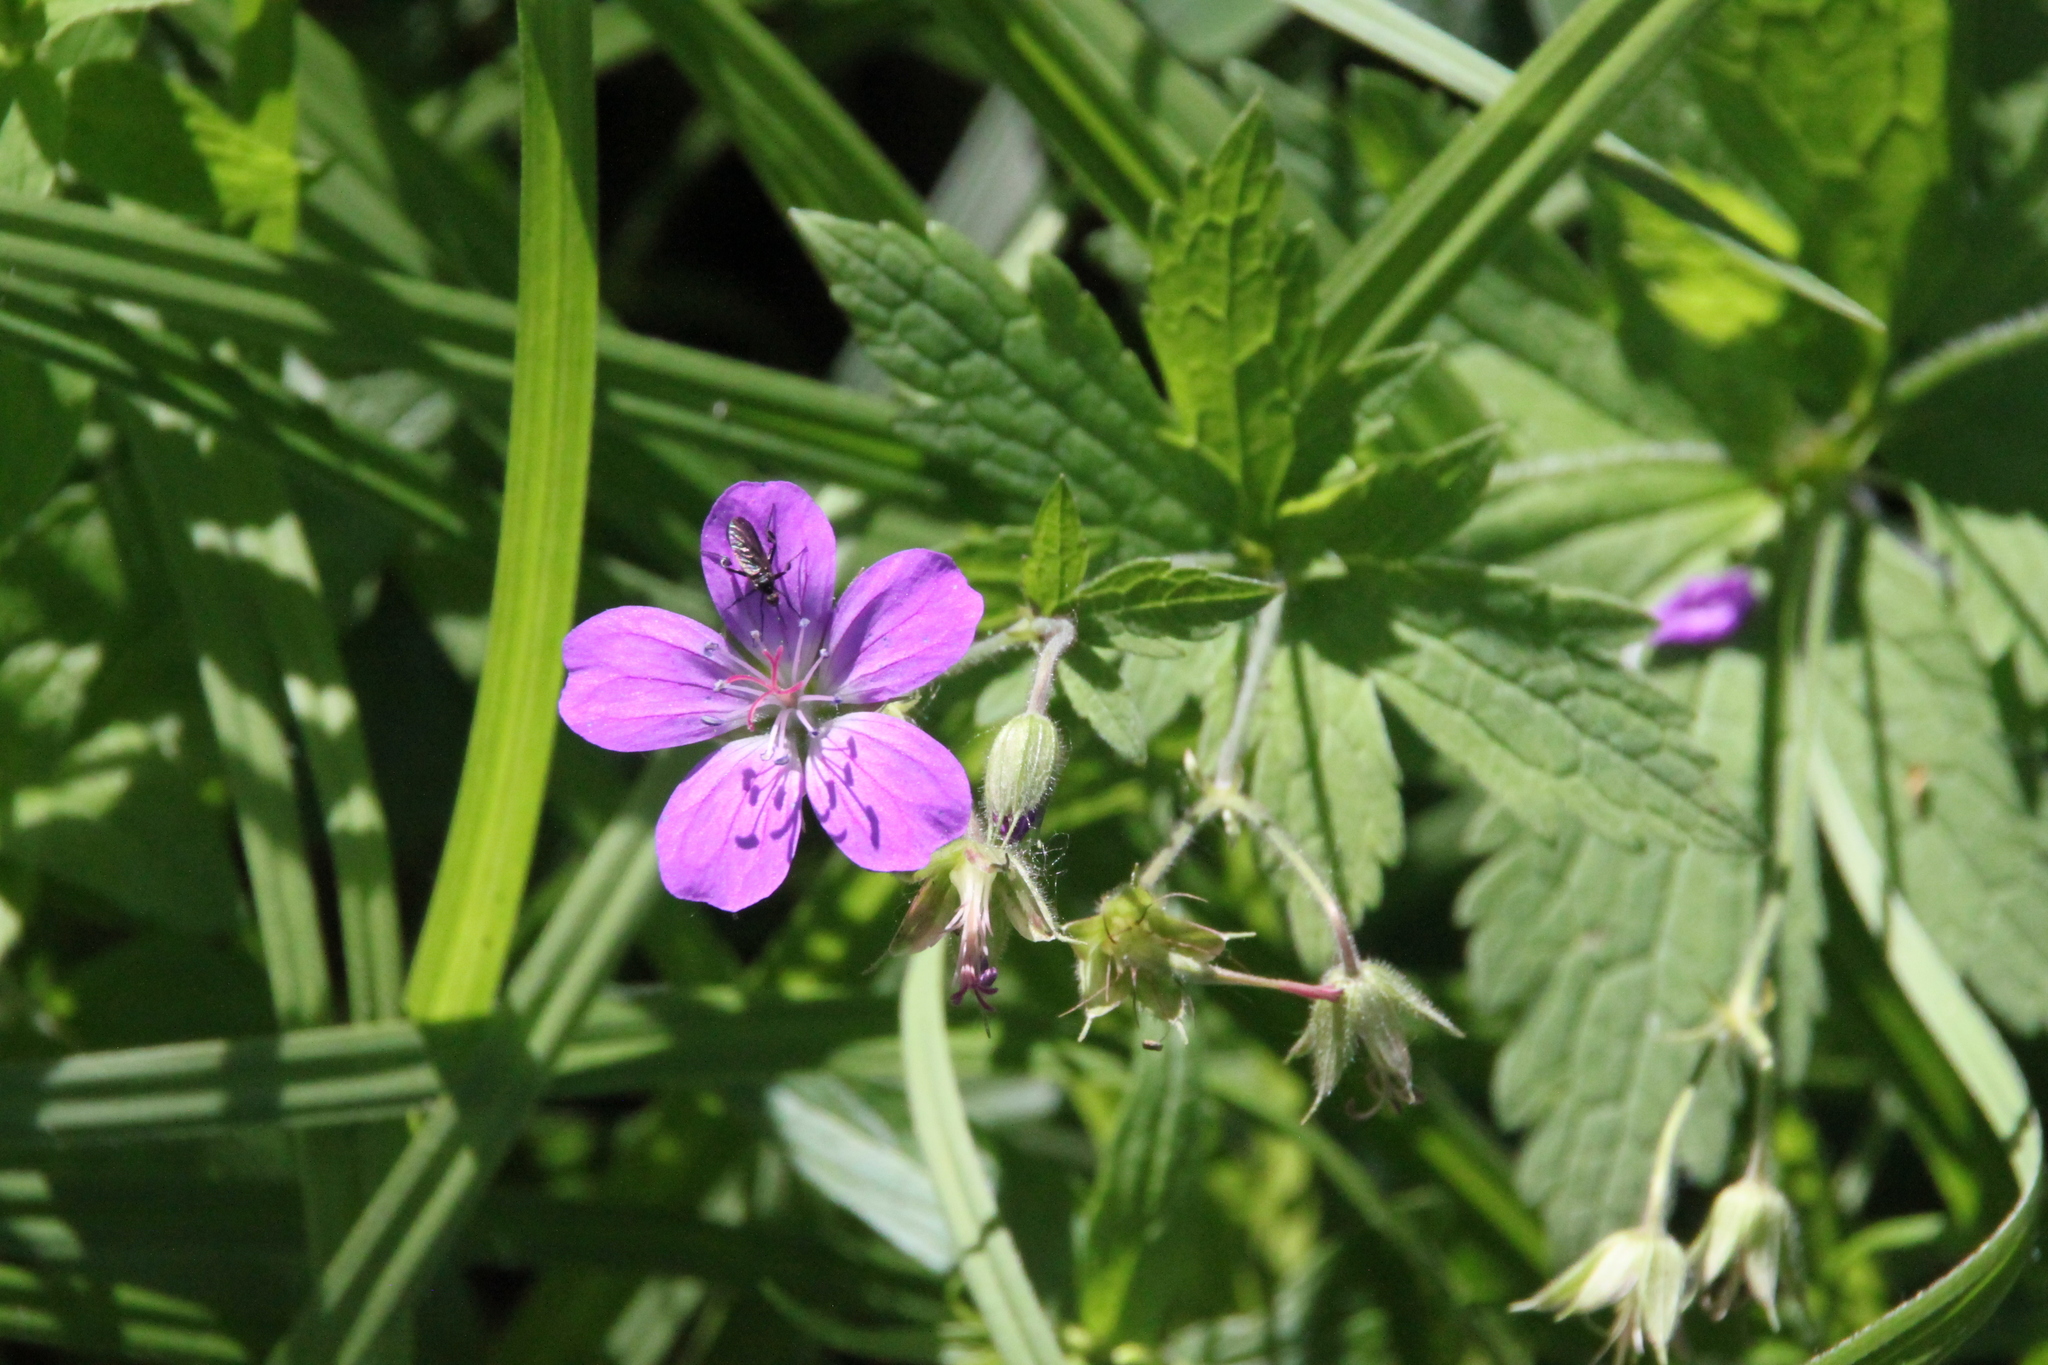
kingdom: Plantae
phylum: Tracheophyta
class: Magnoliopsida
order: Geraniales
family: Geraniaceae
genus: Geranium
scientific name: Geranium sylvaticum
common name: Wood crane's-bill
